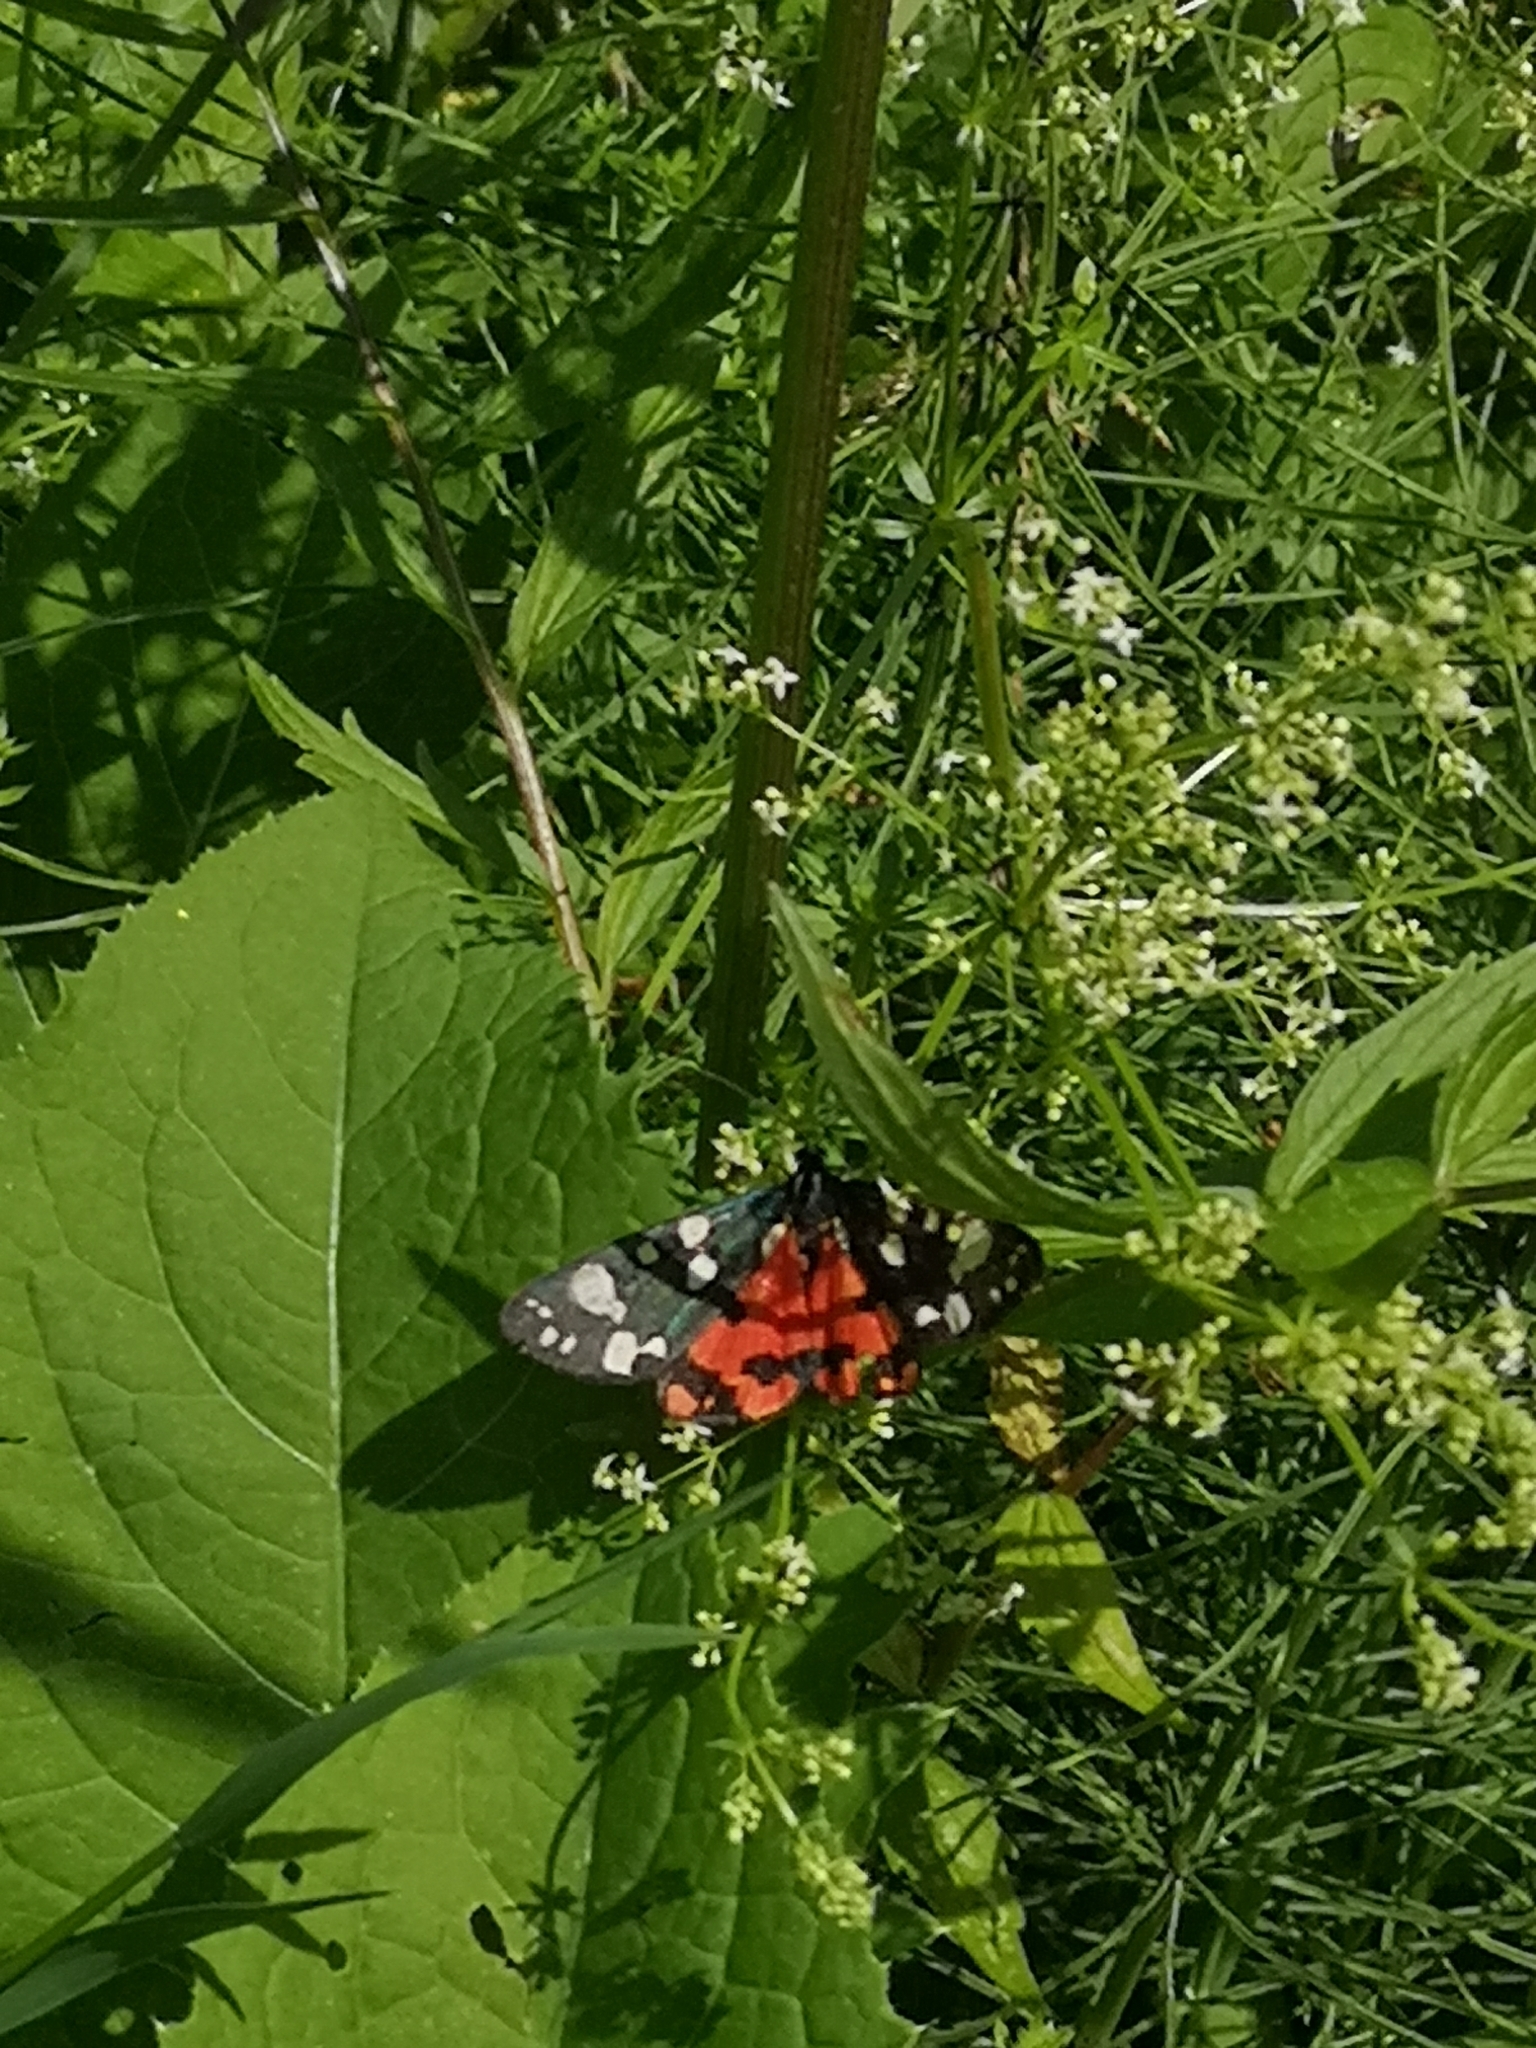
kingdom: Animalia
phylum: Arthropoda
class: Insecta
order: Lepidoptera
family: Erebidae
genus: Callimorpha
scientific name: Callimorpha dominula
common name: Scarlet tiger
